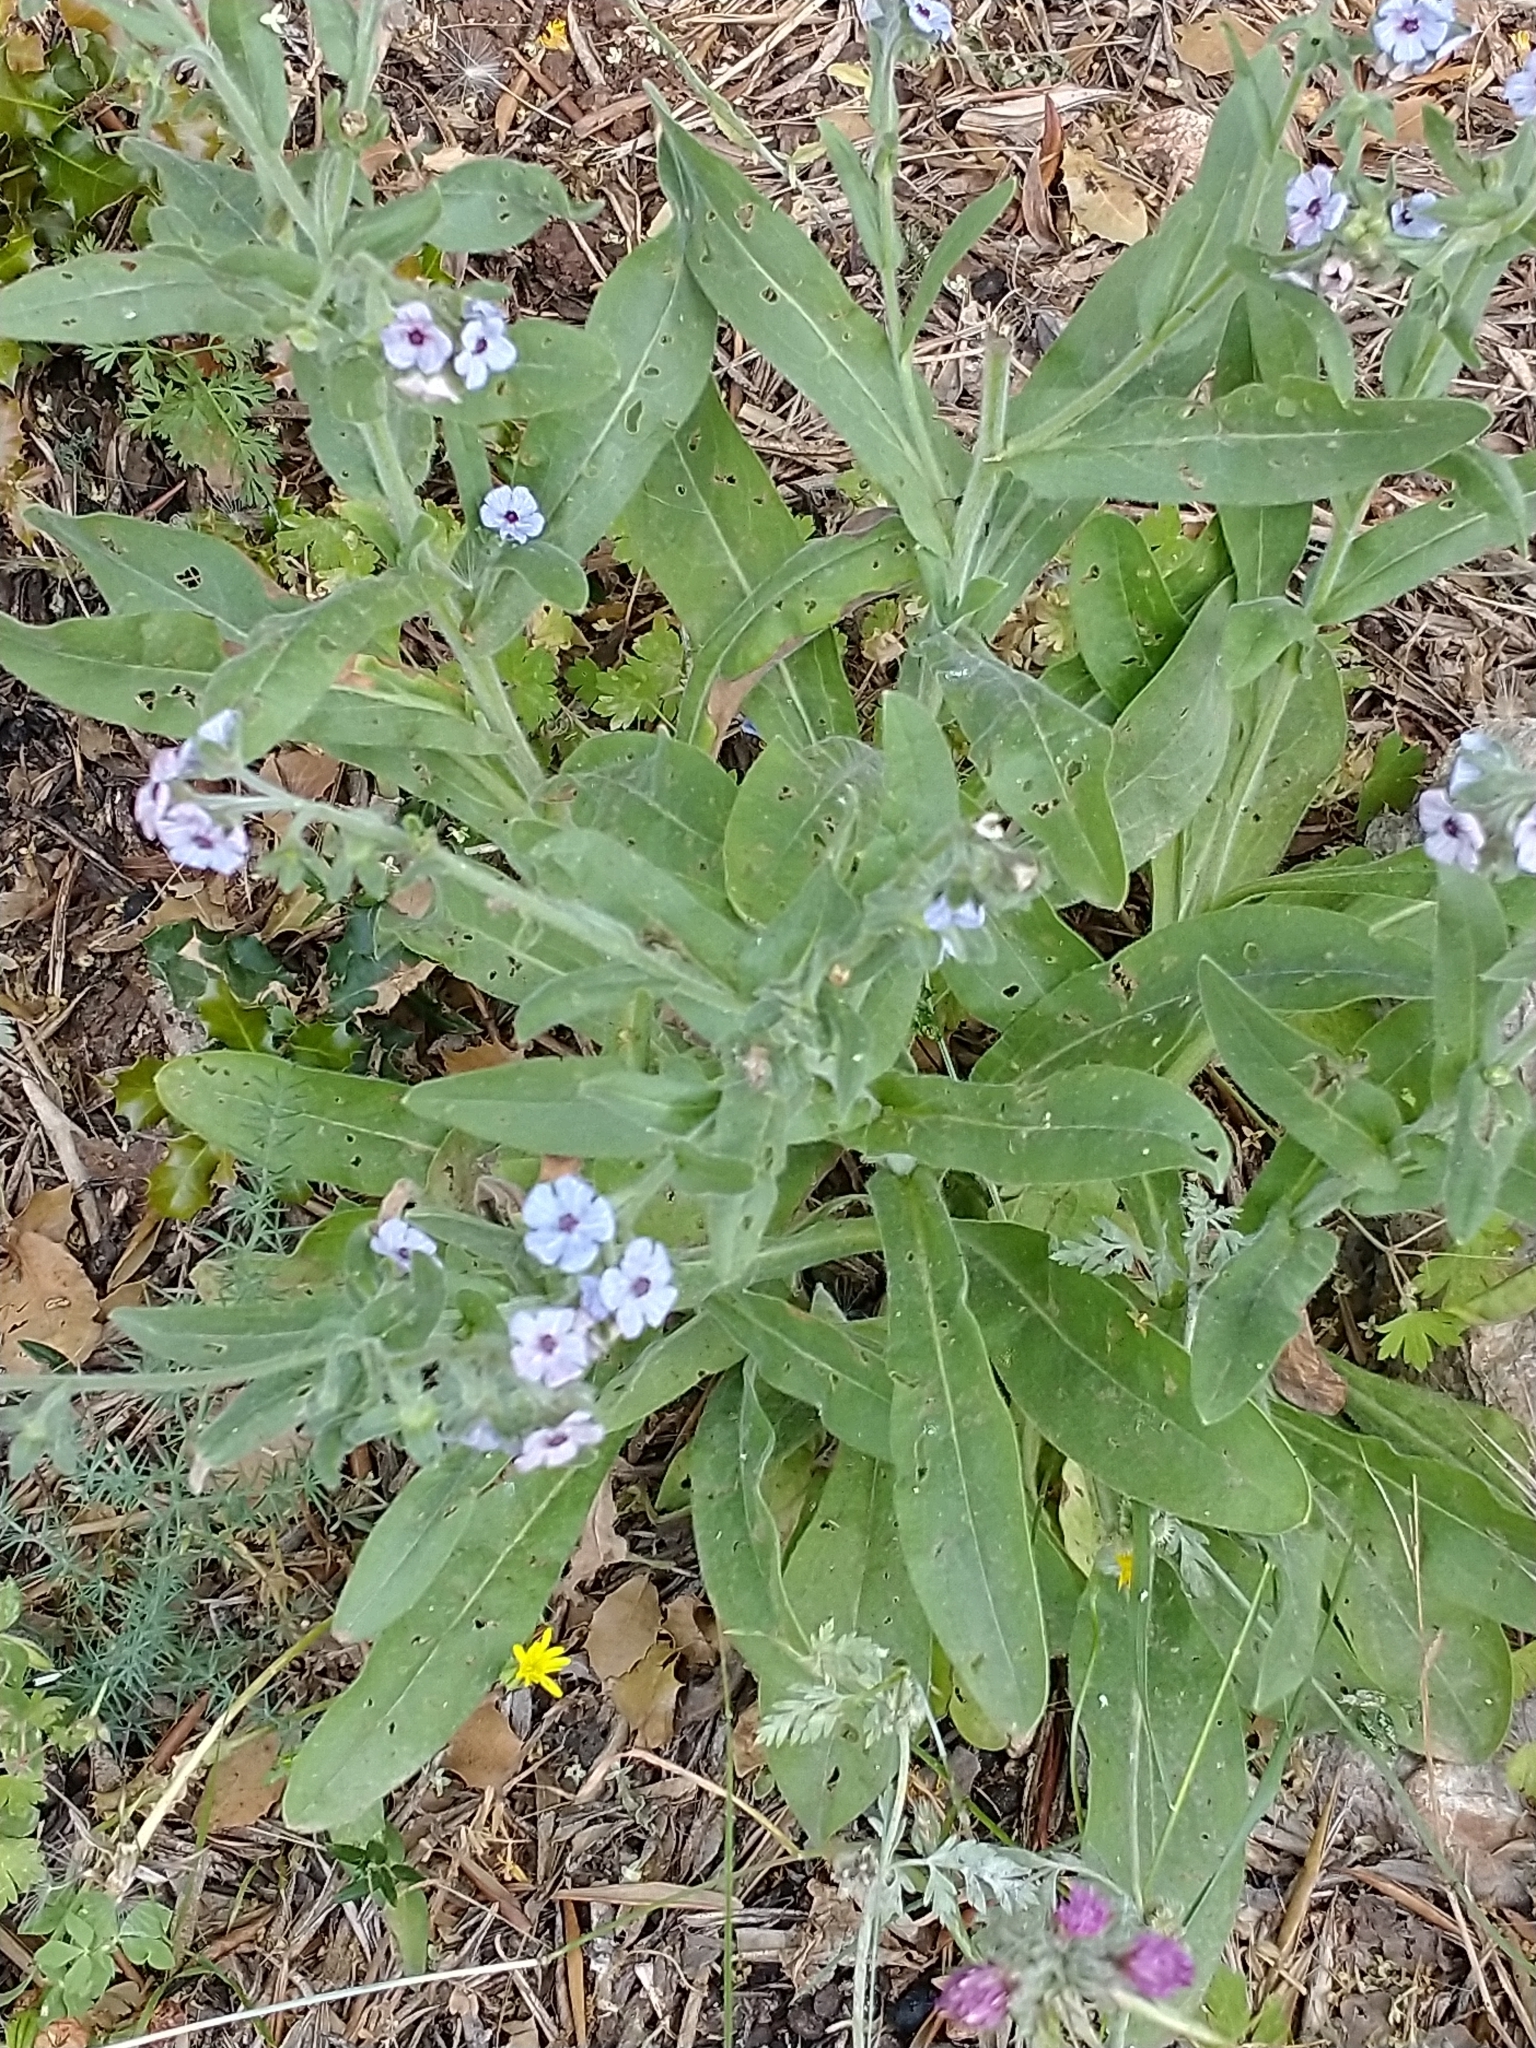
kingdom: Plantae
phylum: Tracheophyta
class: Magnoliopsida
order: Boraginales
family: Boraginaceae
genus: Cynoglossum
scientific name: Cynoglossum creticum
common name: Blue hound's tongue
